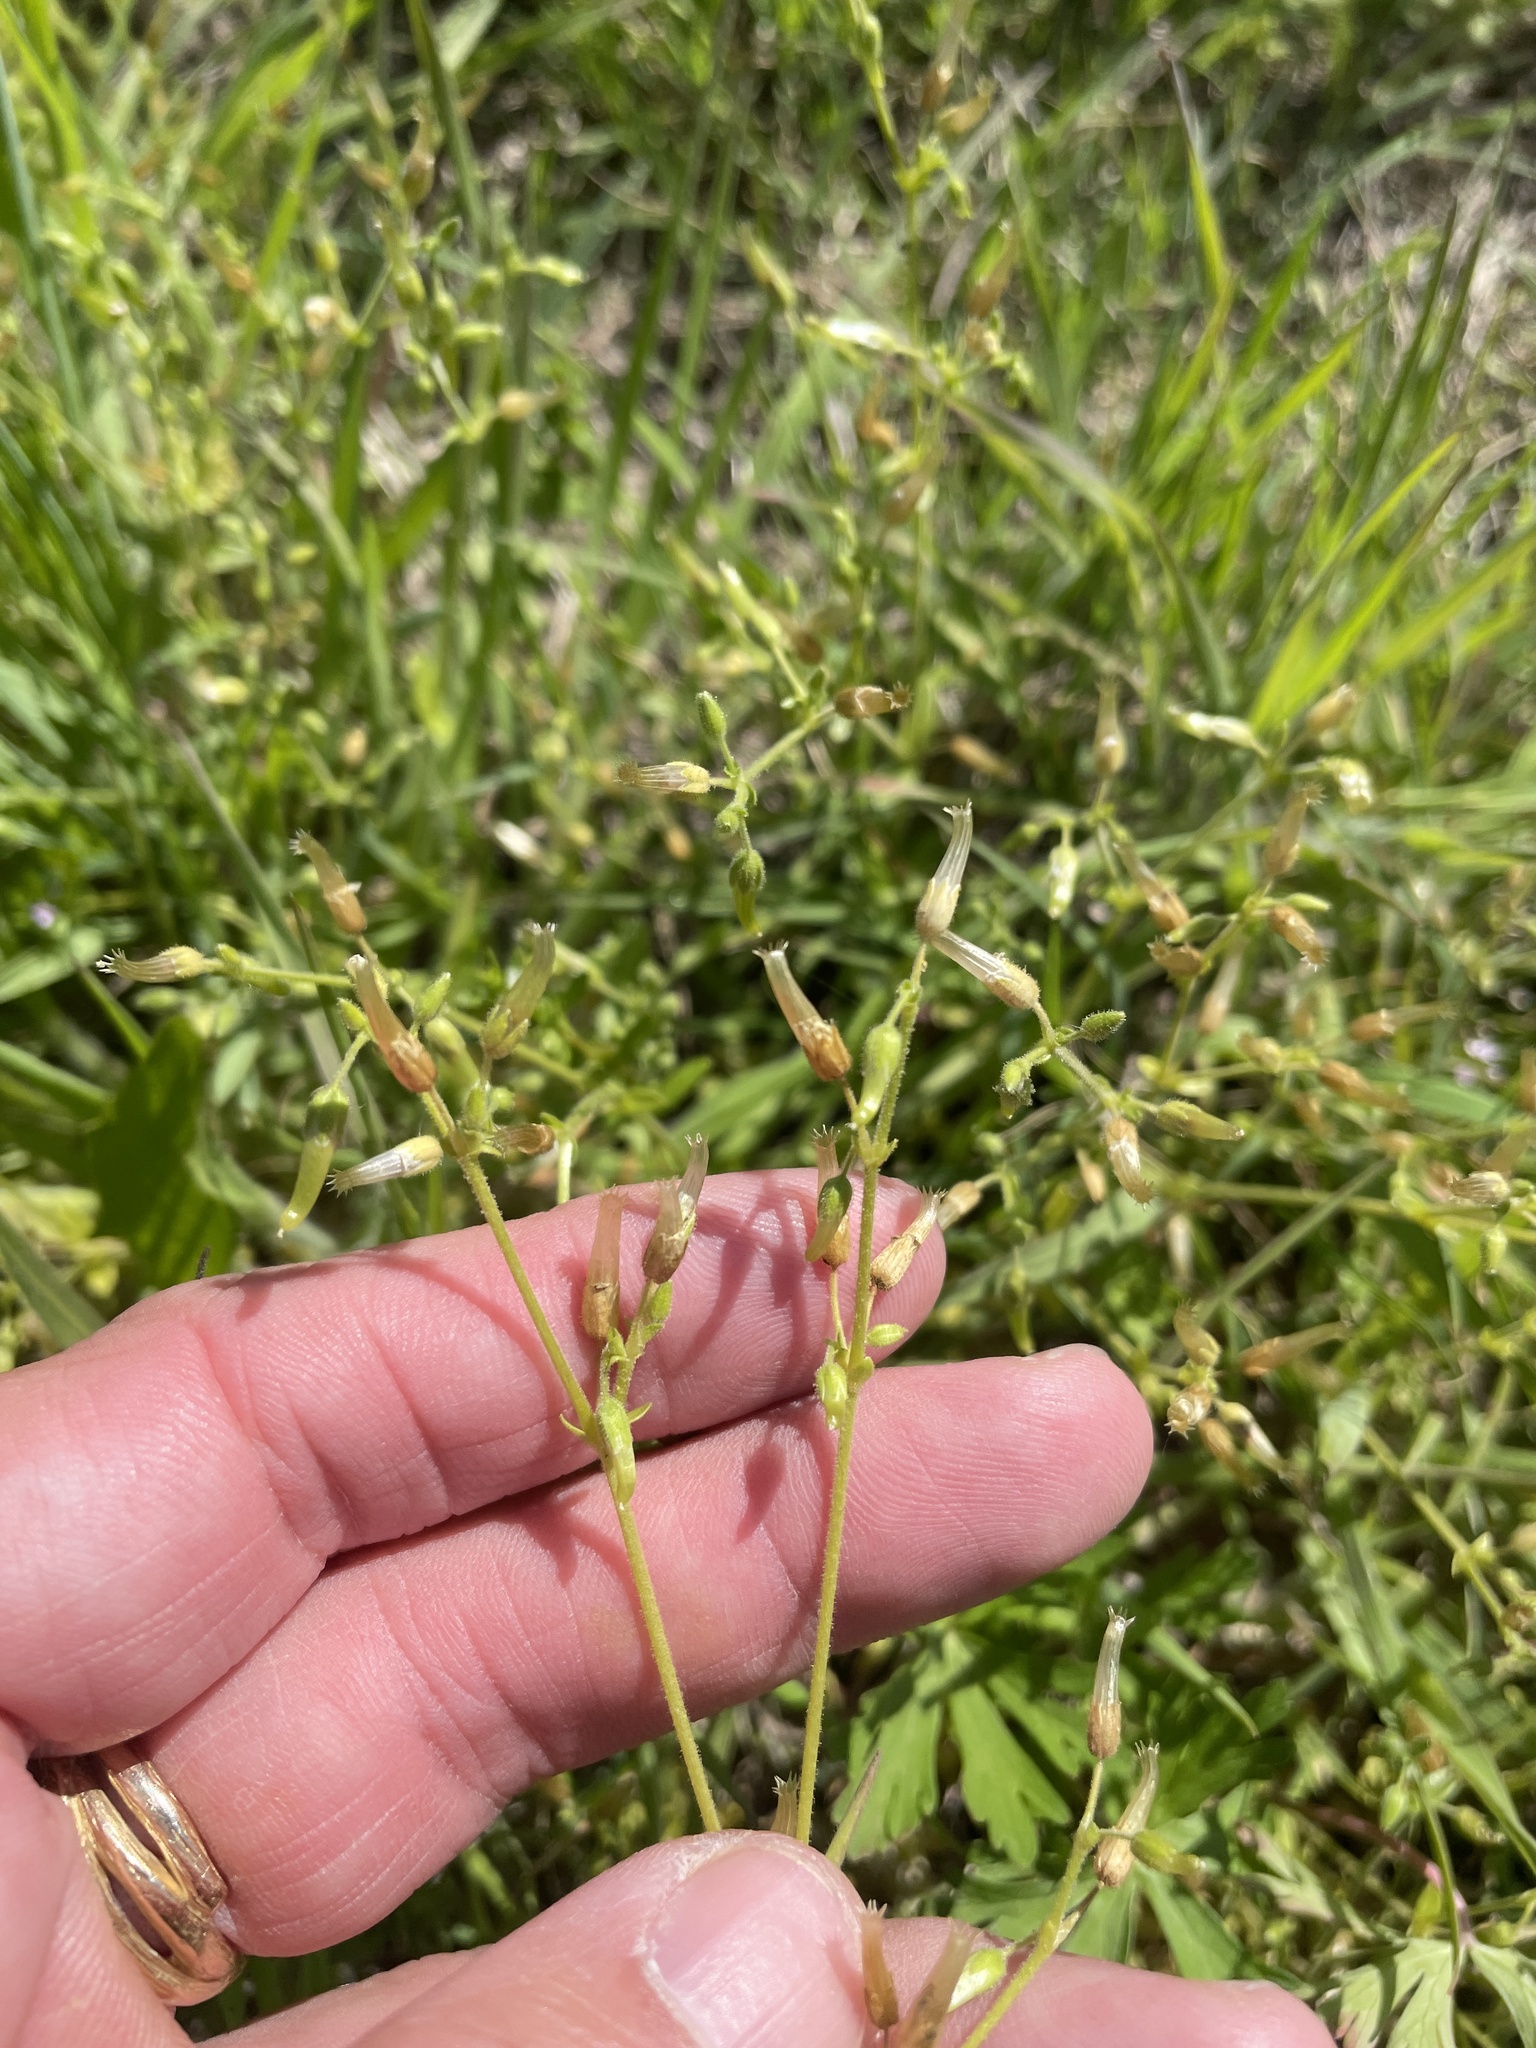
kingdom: Plantae
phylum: Tracheophyta
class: Magnoliopsida
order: Caryophyllales
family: Caryophyllaceae
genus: Cerastium
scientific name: Cerastium glomeratum
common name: Sticky chickweed
